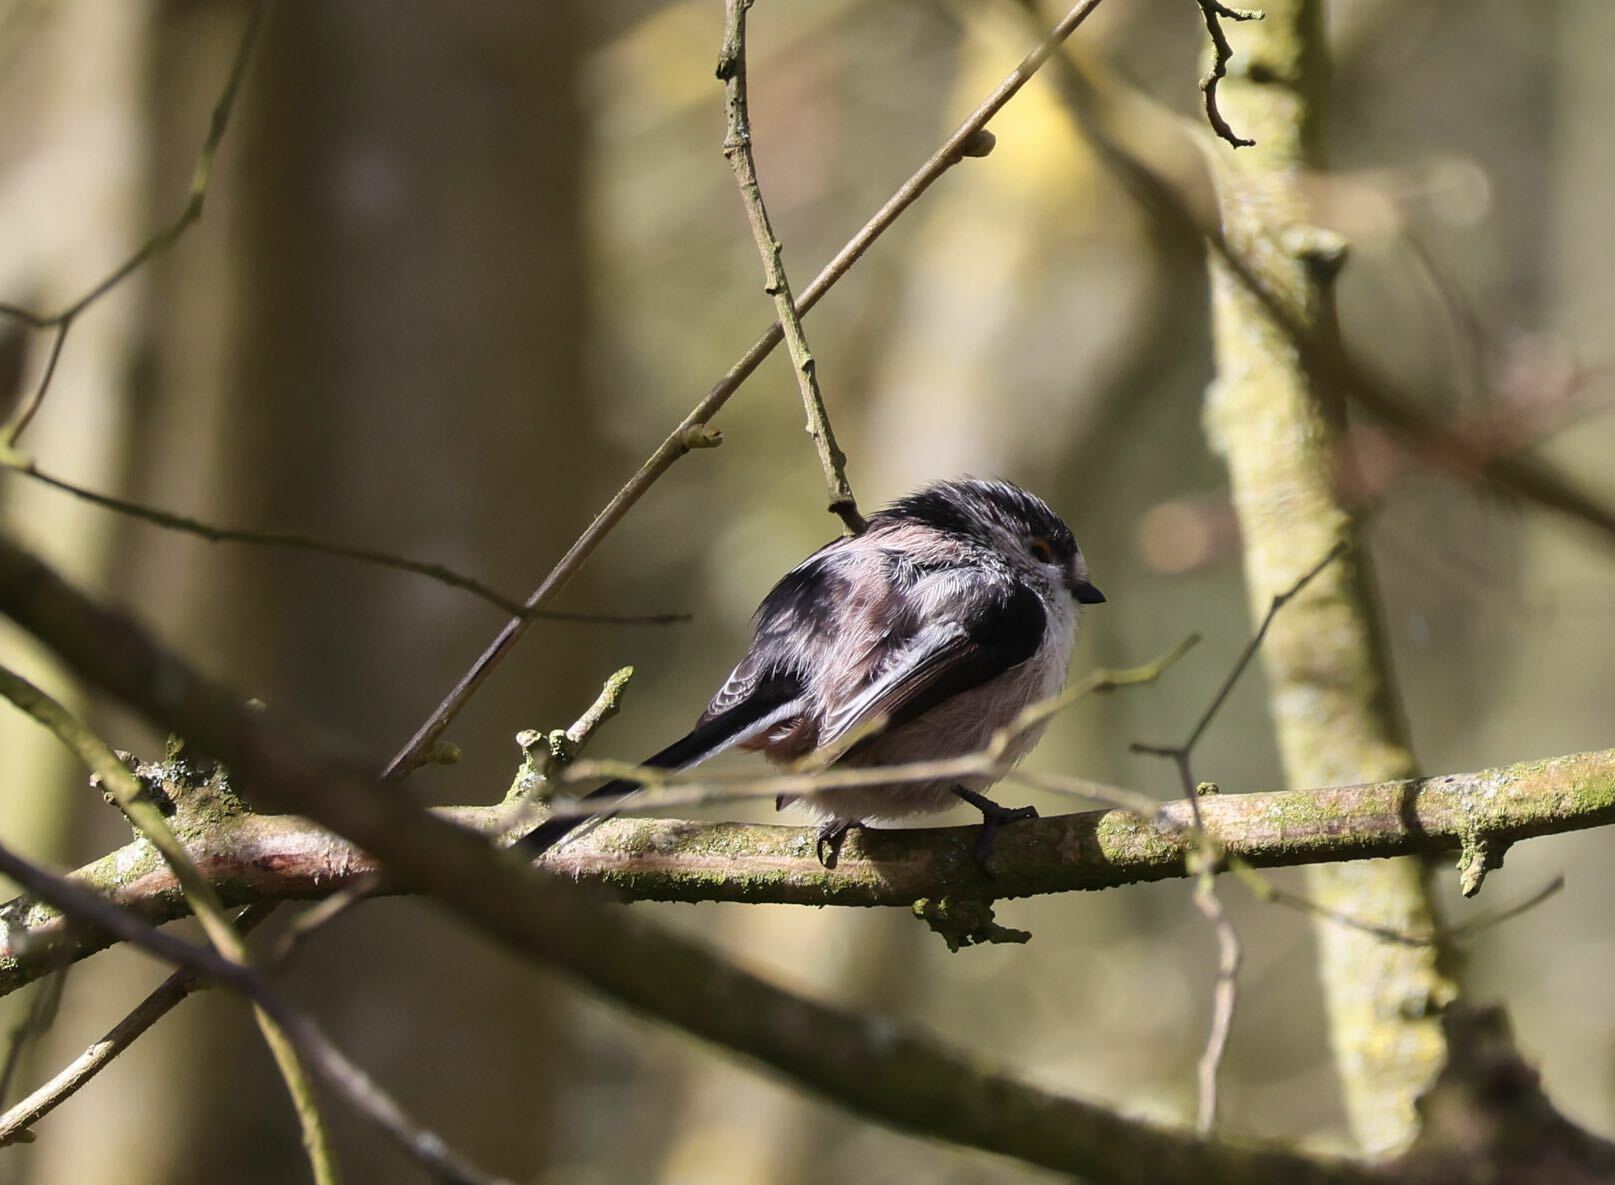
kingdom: Animalia
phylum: Chordata
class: Aves
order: Passeriformes
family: Aegithalidae
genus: Aegithalos
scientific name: Aegithalos caudatus
